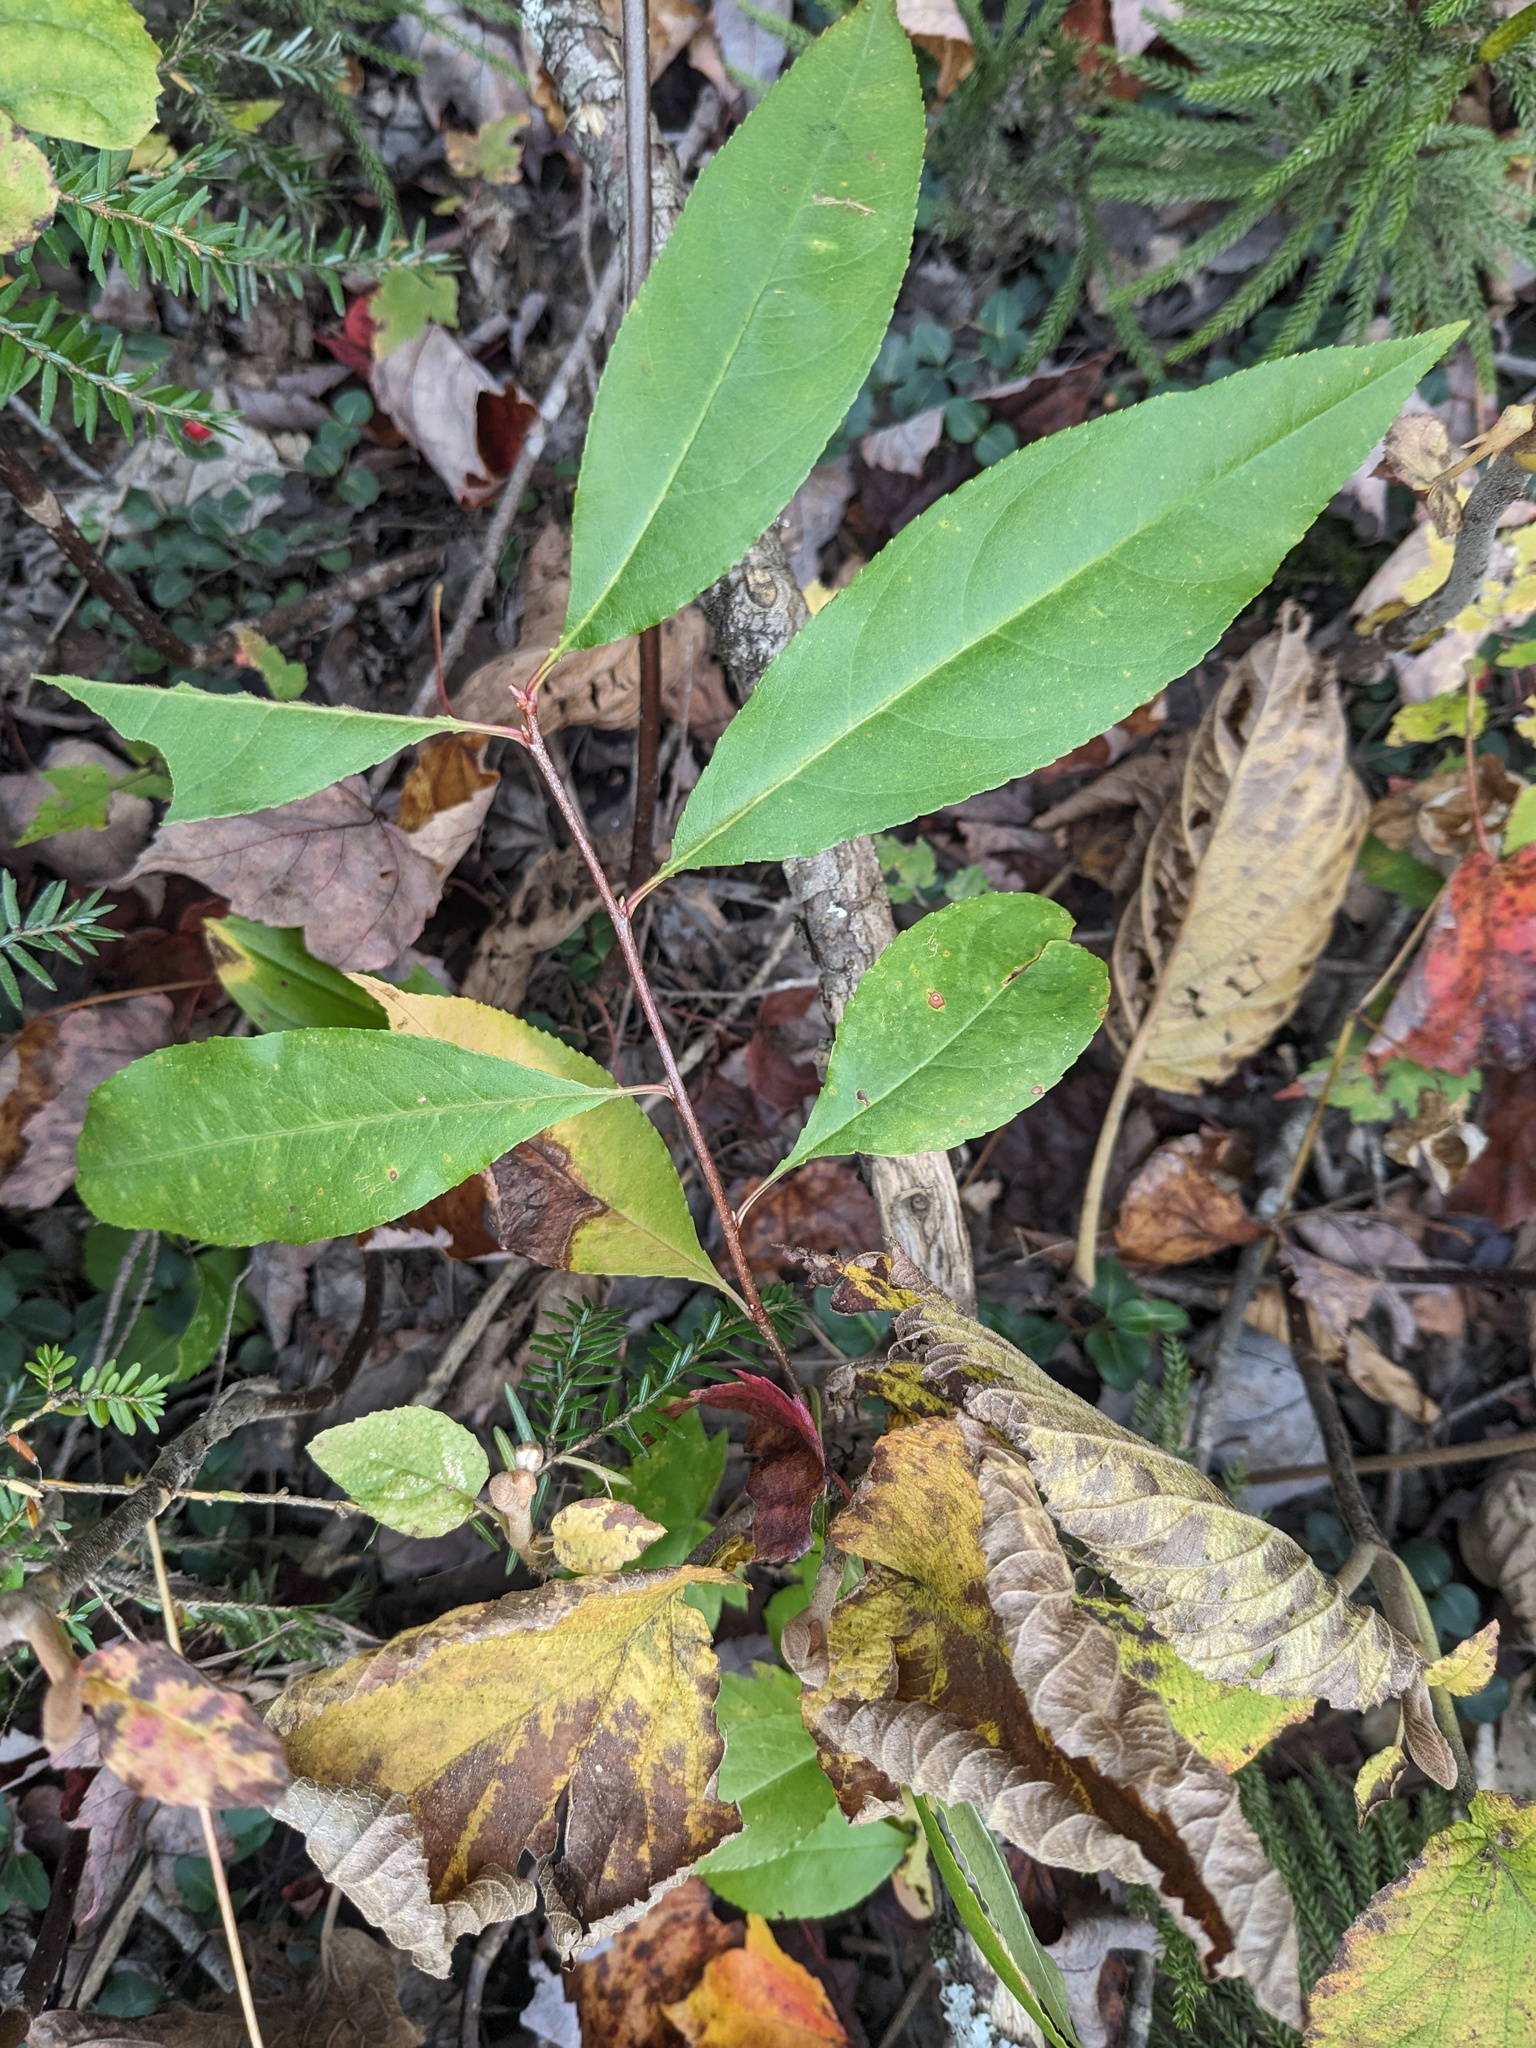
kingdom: Plantae
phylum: Tracheophyta
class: Magnoliopsida
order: Rosales
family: Rosaceae
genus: Prunus
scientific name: Prunus serotina
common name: Black cherry
